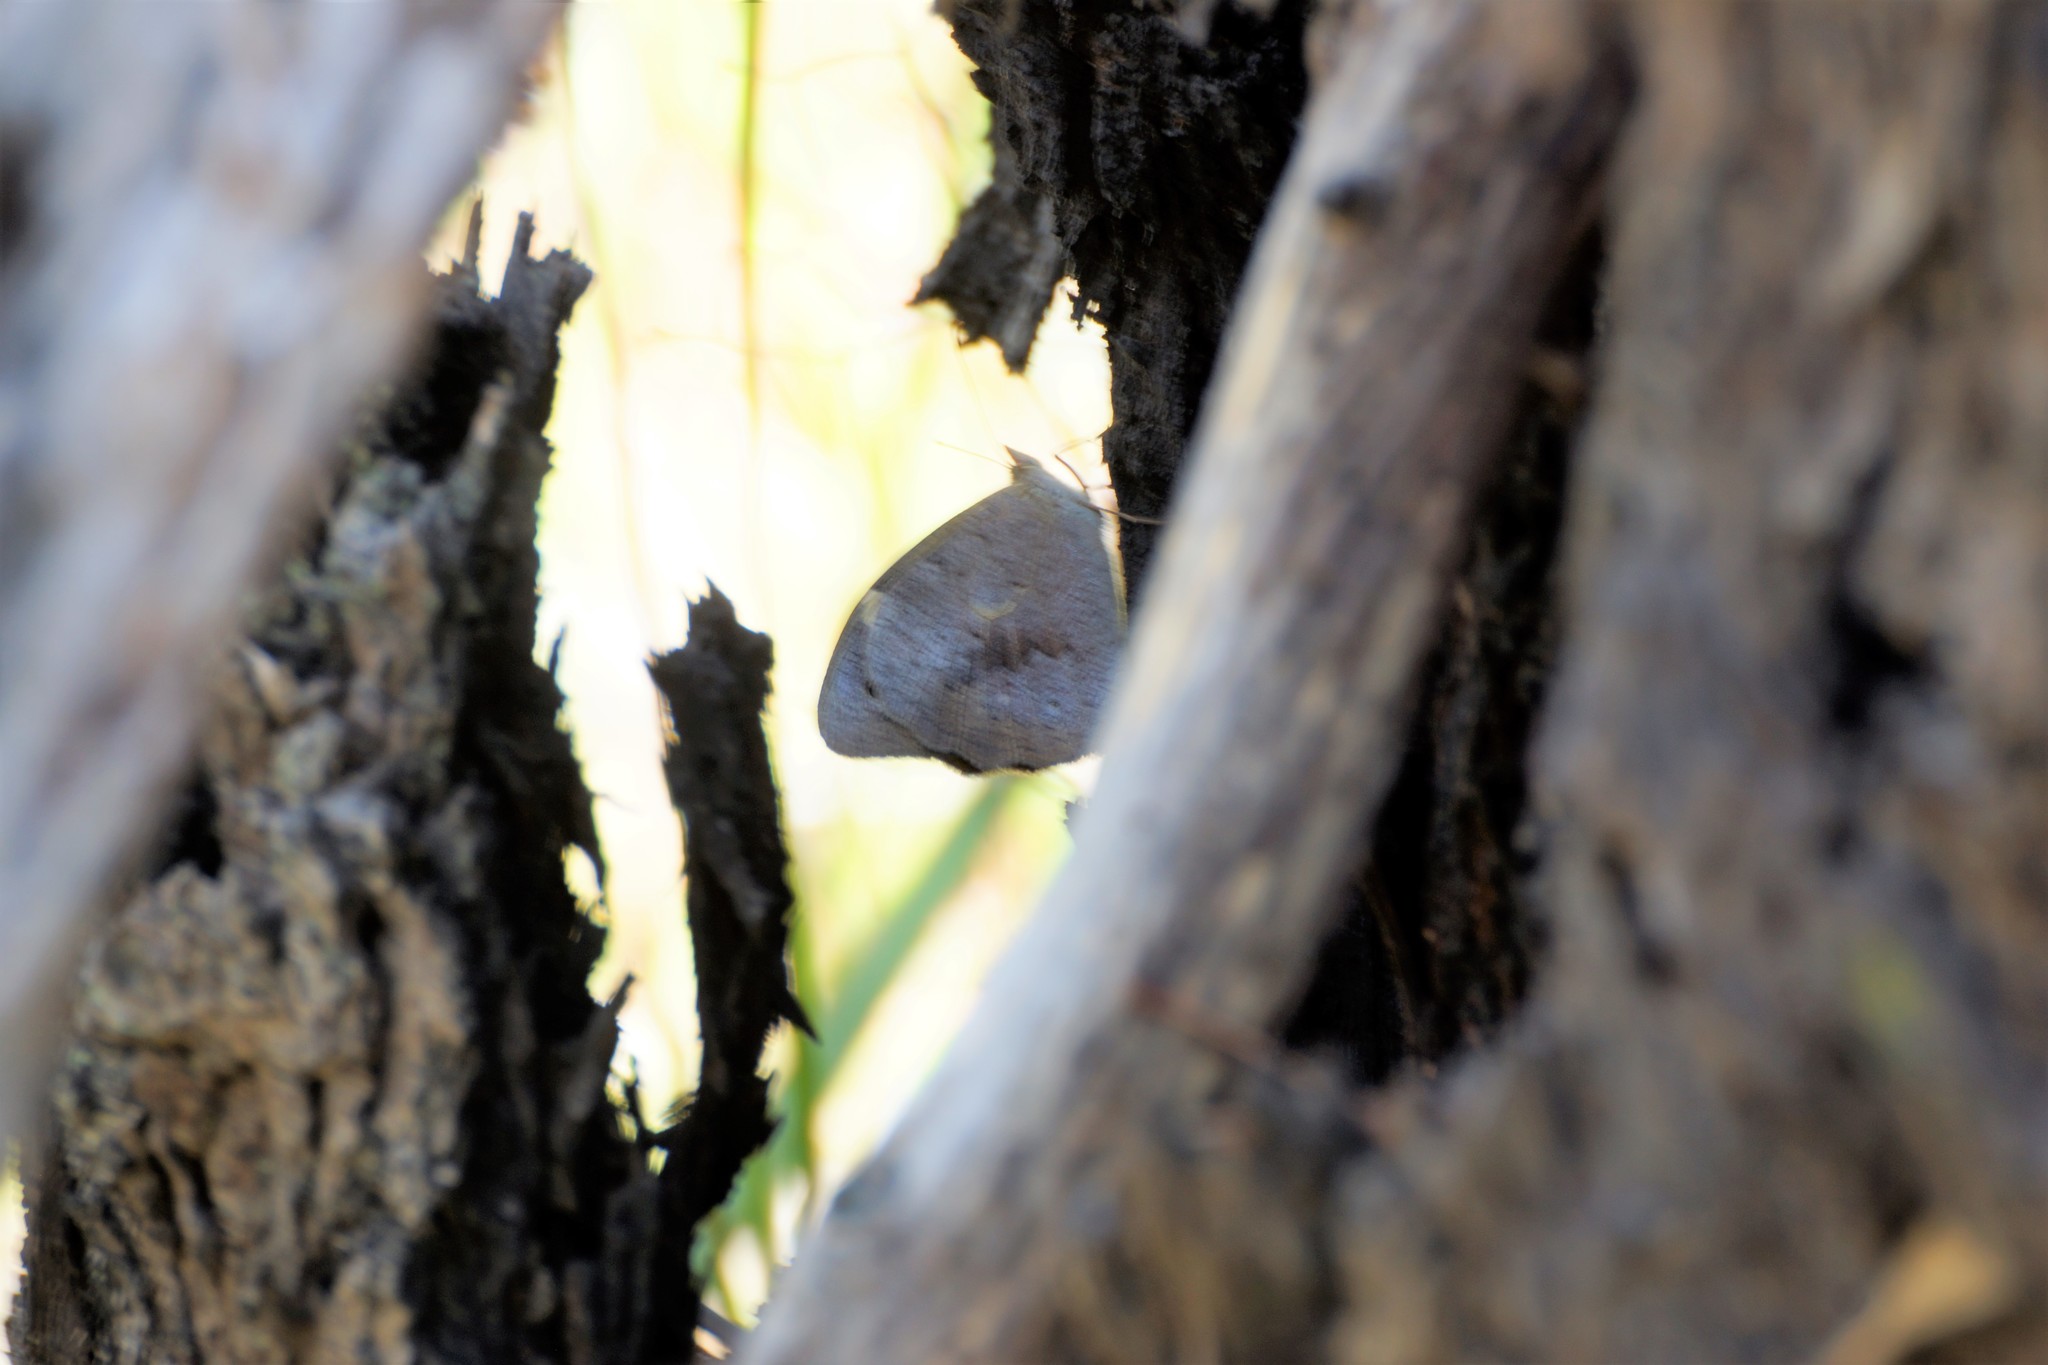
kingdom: Animalia
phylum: Arthropoda
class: Insecta
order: Lepidoptera
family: Nymphalidae
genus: Heteronympha
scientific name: Heteronympha merope
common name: Common brown
